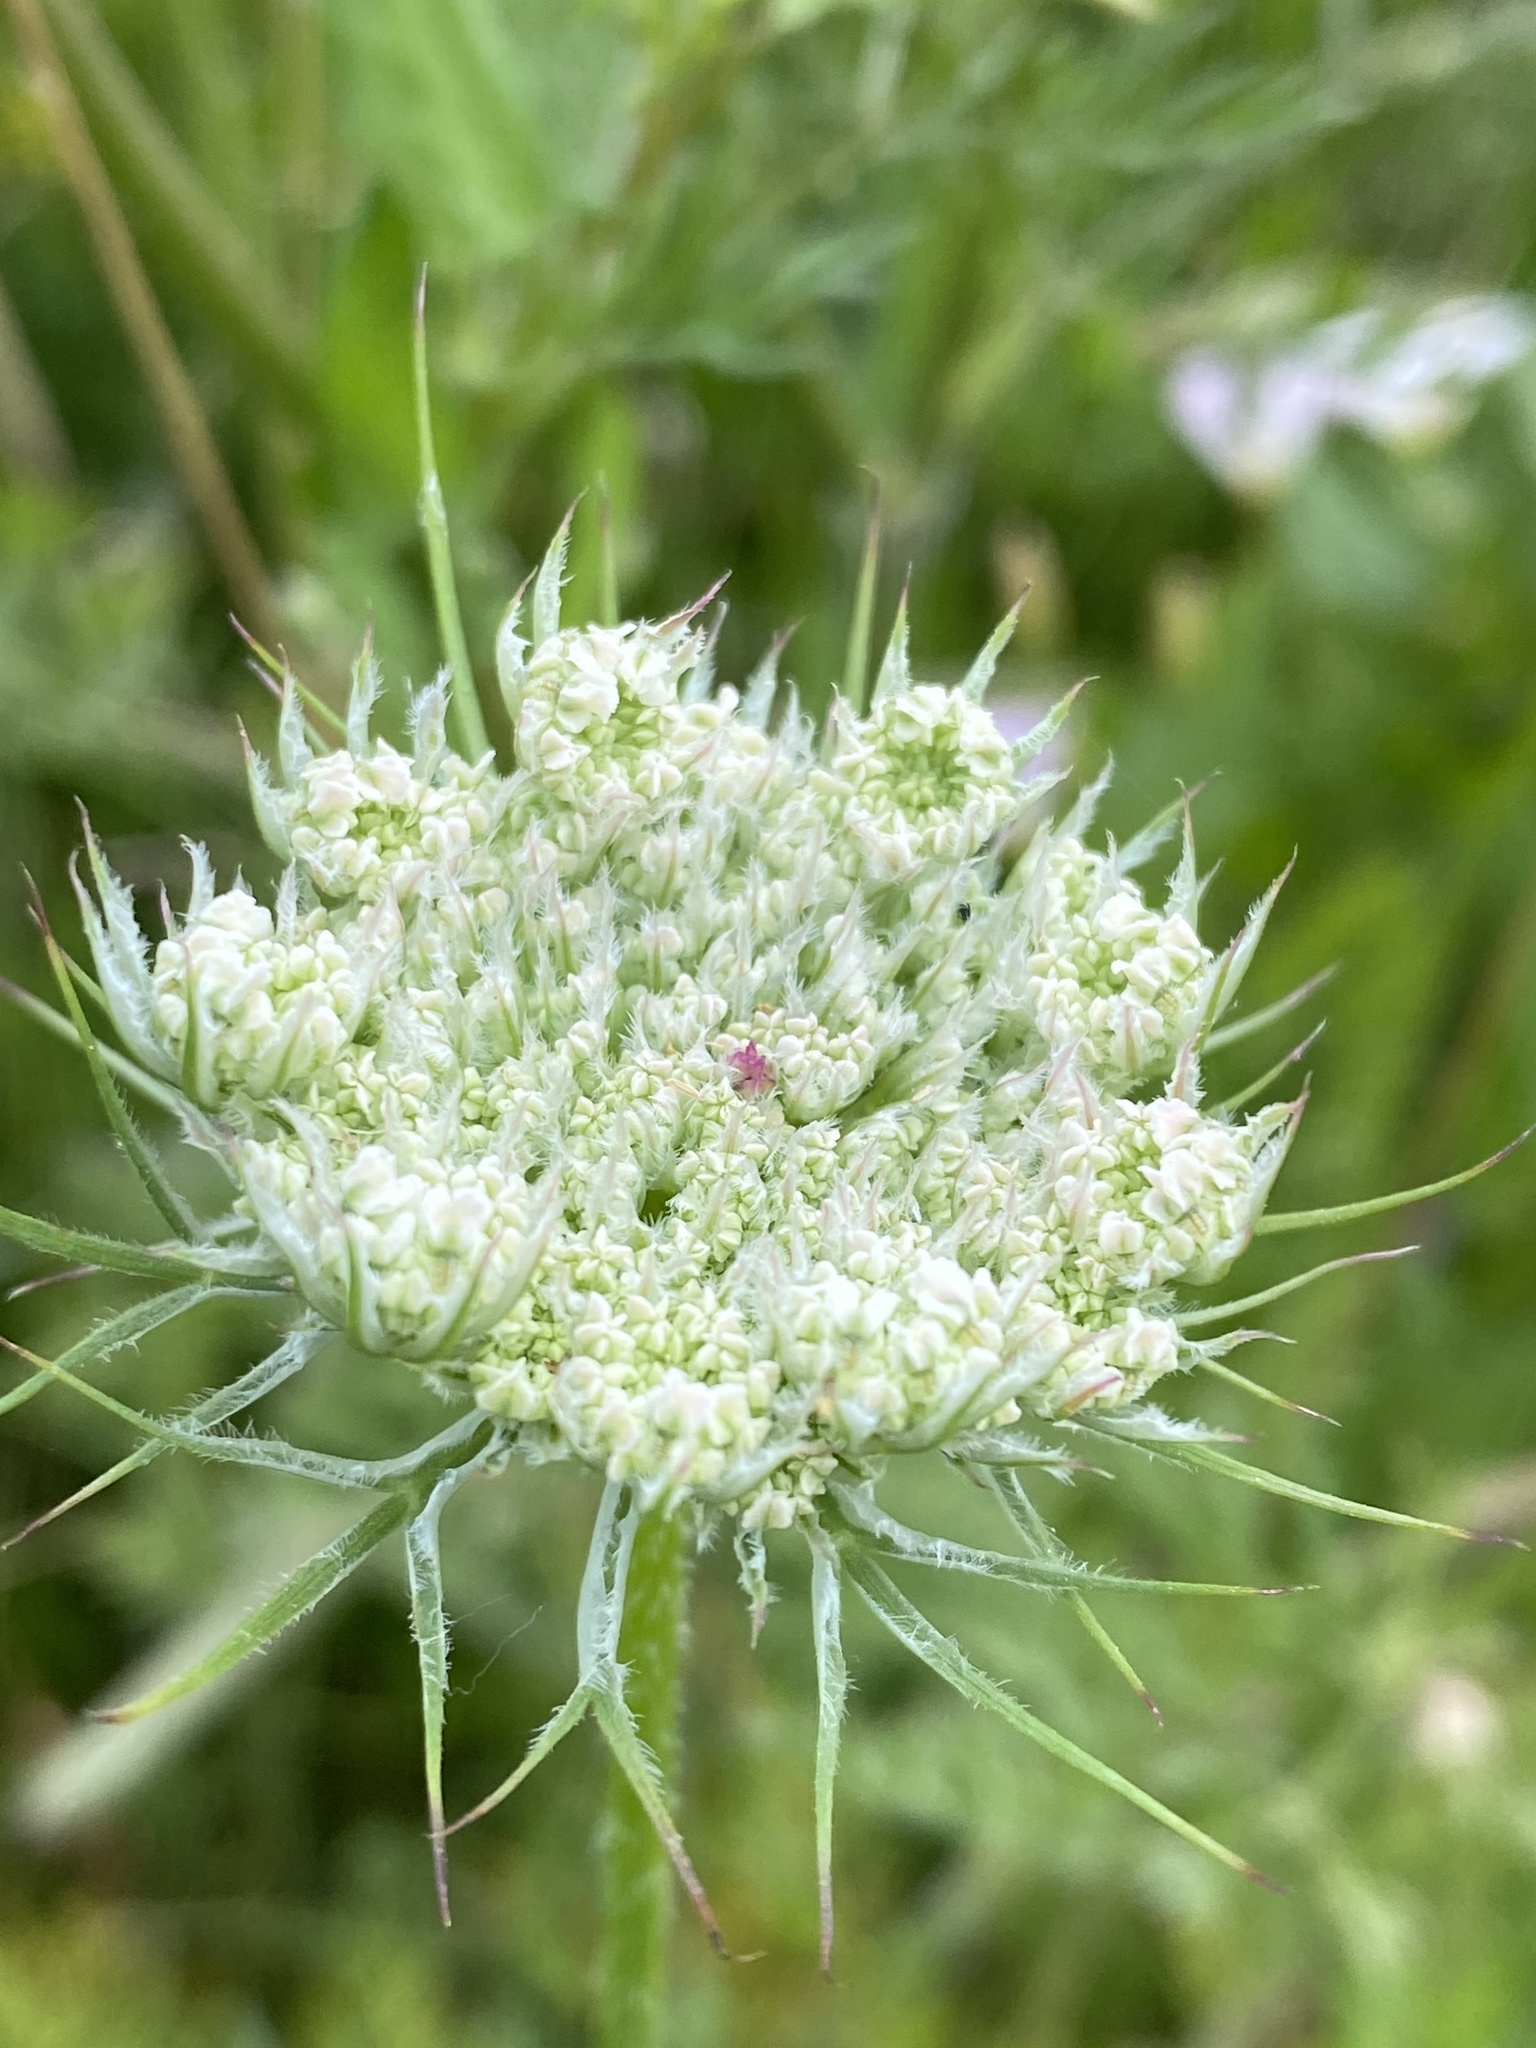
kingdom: Plantae
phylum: Tracheophyta
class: Magnoliopsida
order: Apiales
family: Apiaceae
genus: Daucus
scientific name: Daucus carota
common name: Wild carrot
